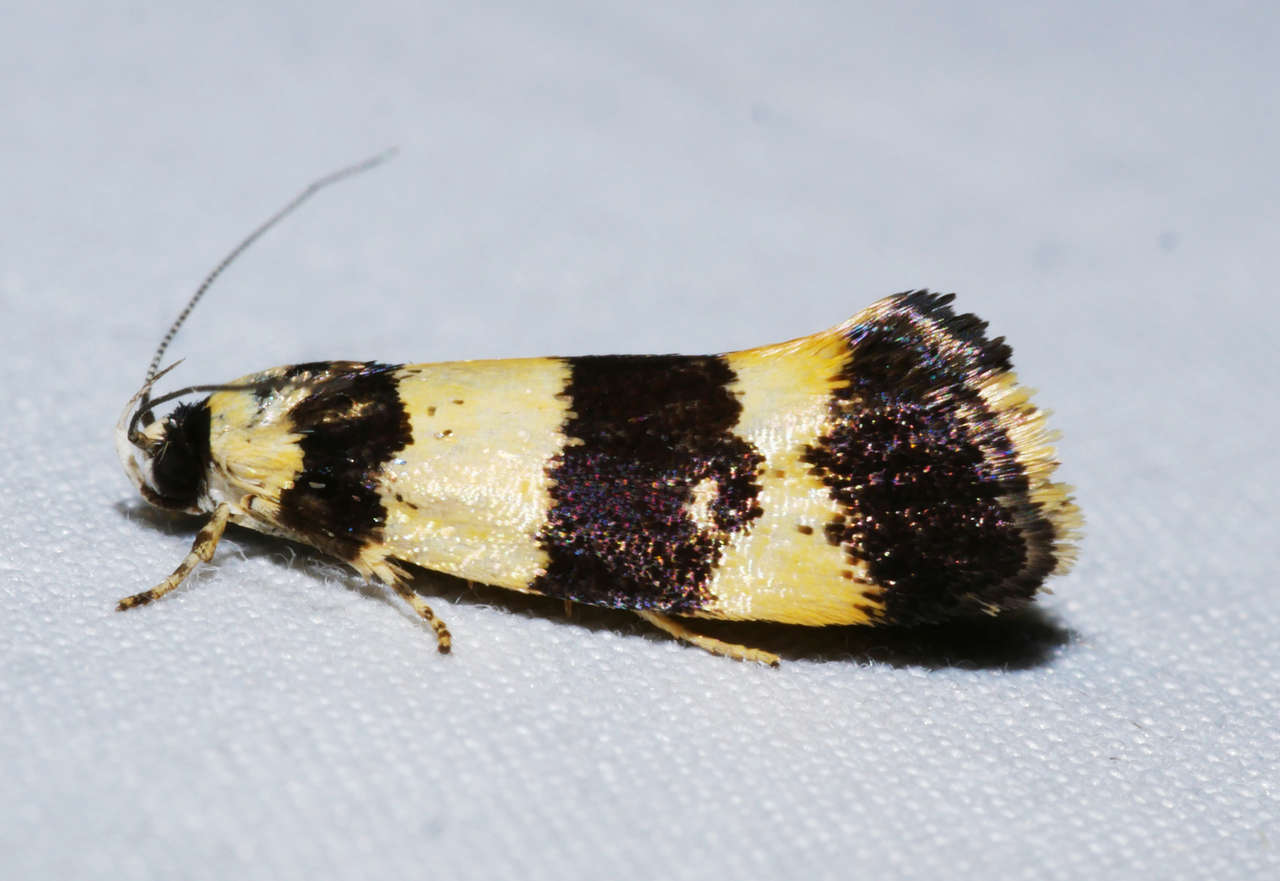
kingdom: Animalia
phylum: Arthropoda
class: Insecta
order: Lepidoptera
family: Xyloryctidae
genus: Telecrates
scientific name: Telecrates melanochrysa
